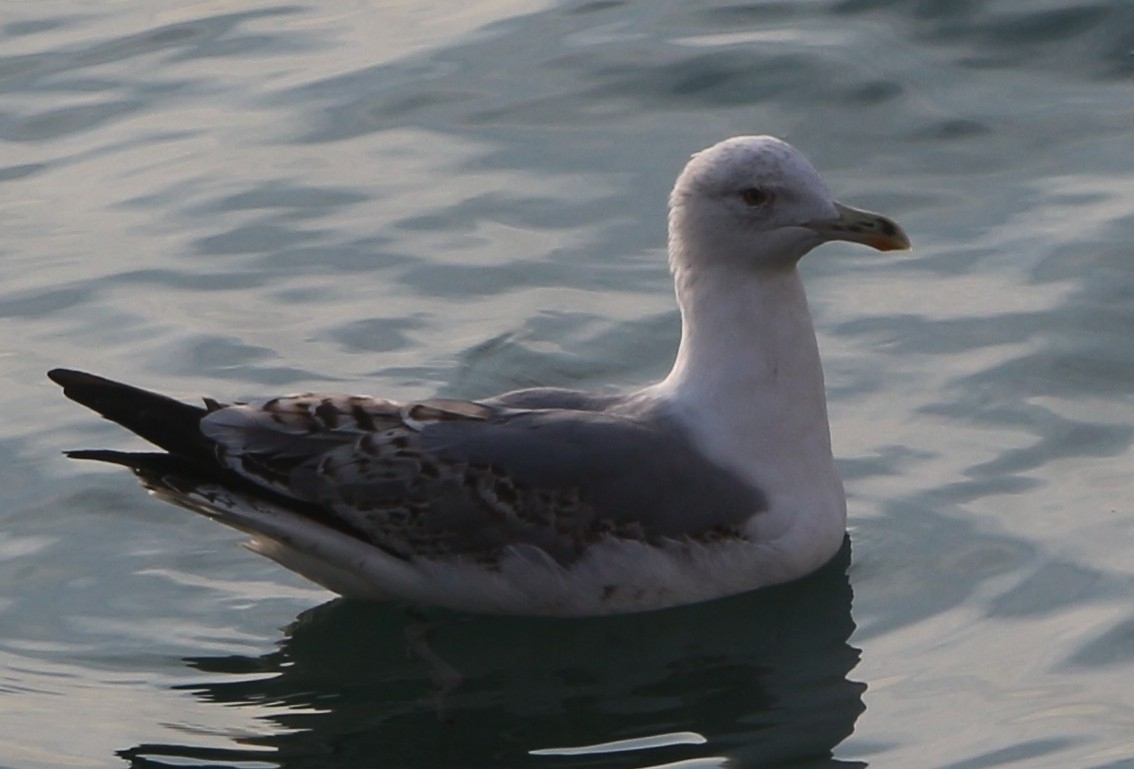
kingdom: Animalia
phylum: Chordata
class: Aves
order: Charadriiformes
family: Laridae
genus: Larus
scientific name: Larus michahellis
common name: Yellow-legged gull
